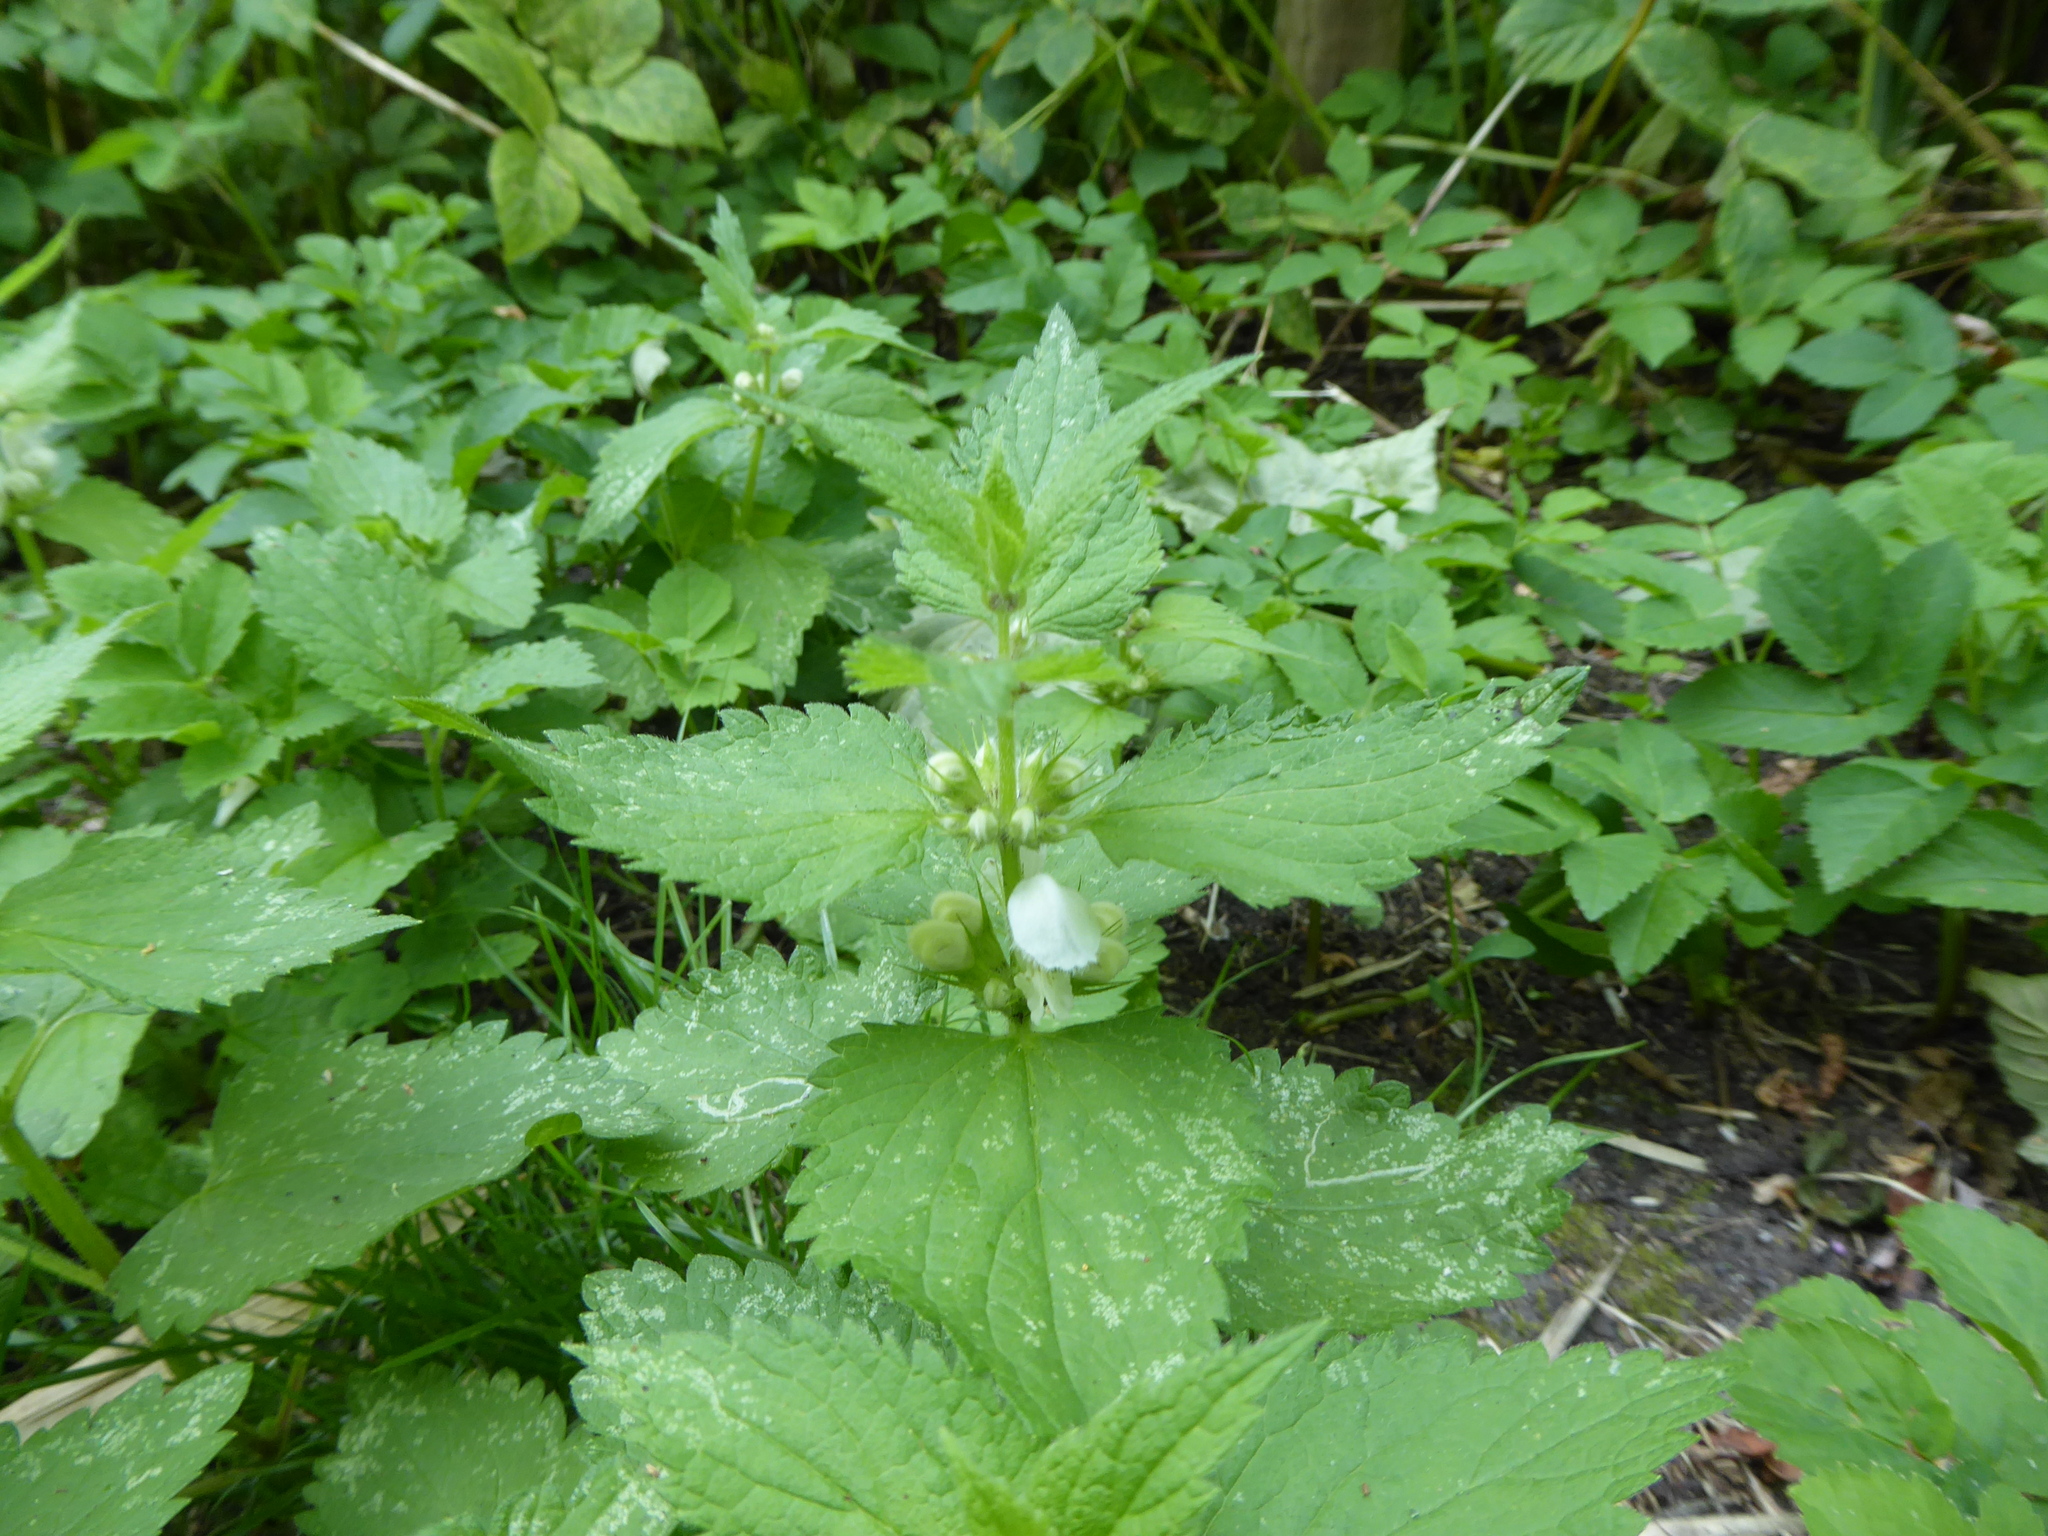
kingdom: Plantae
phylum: Tracheophyta
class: Magnoliopsida
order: Lamiales
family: Lamiaceae
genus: Lamium
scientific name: Lamium album
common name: White dead-nettle
